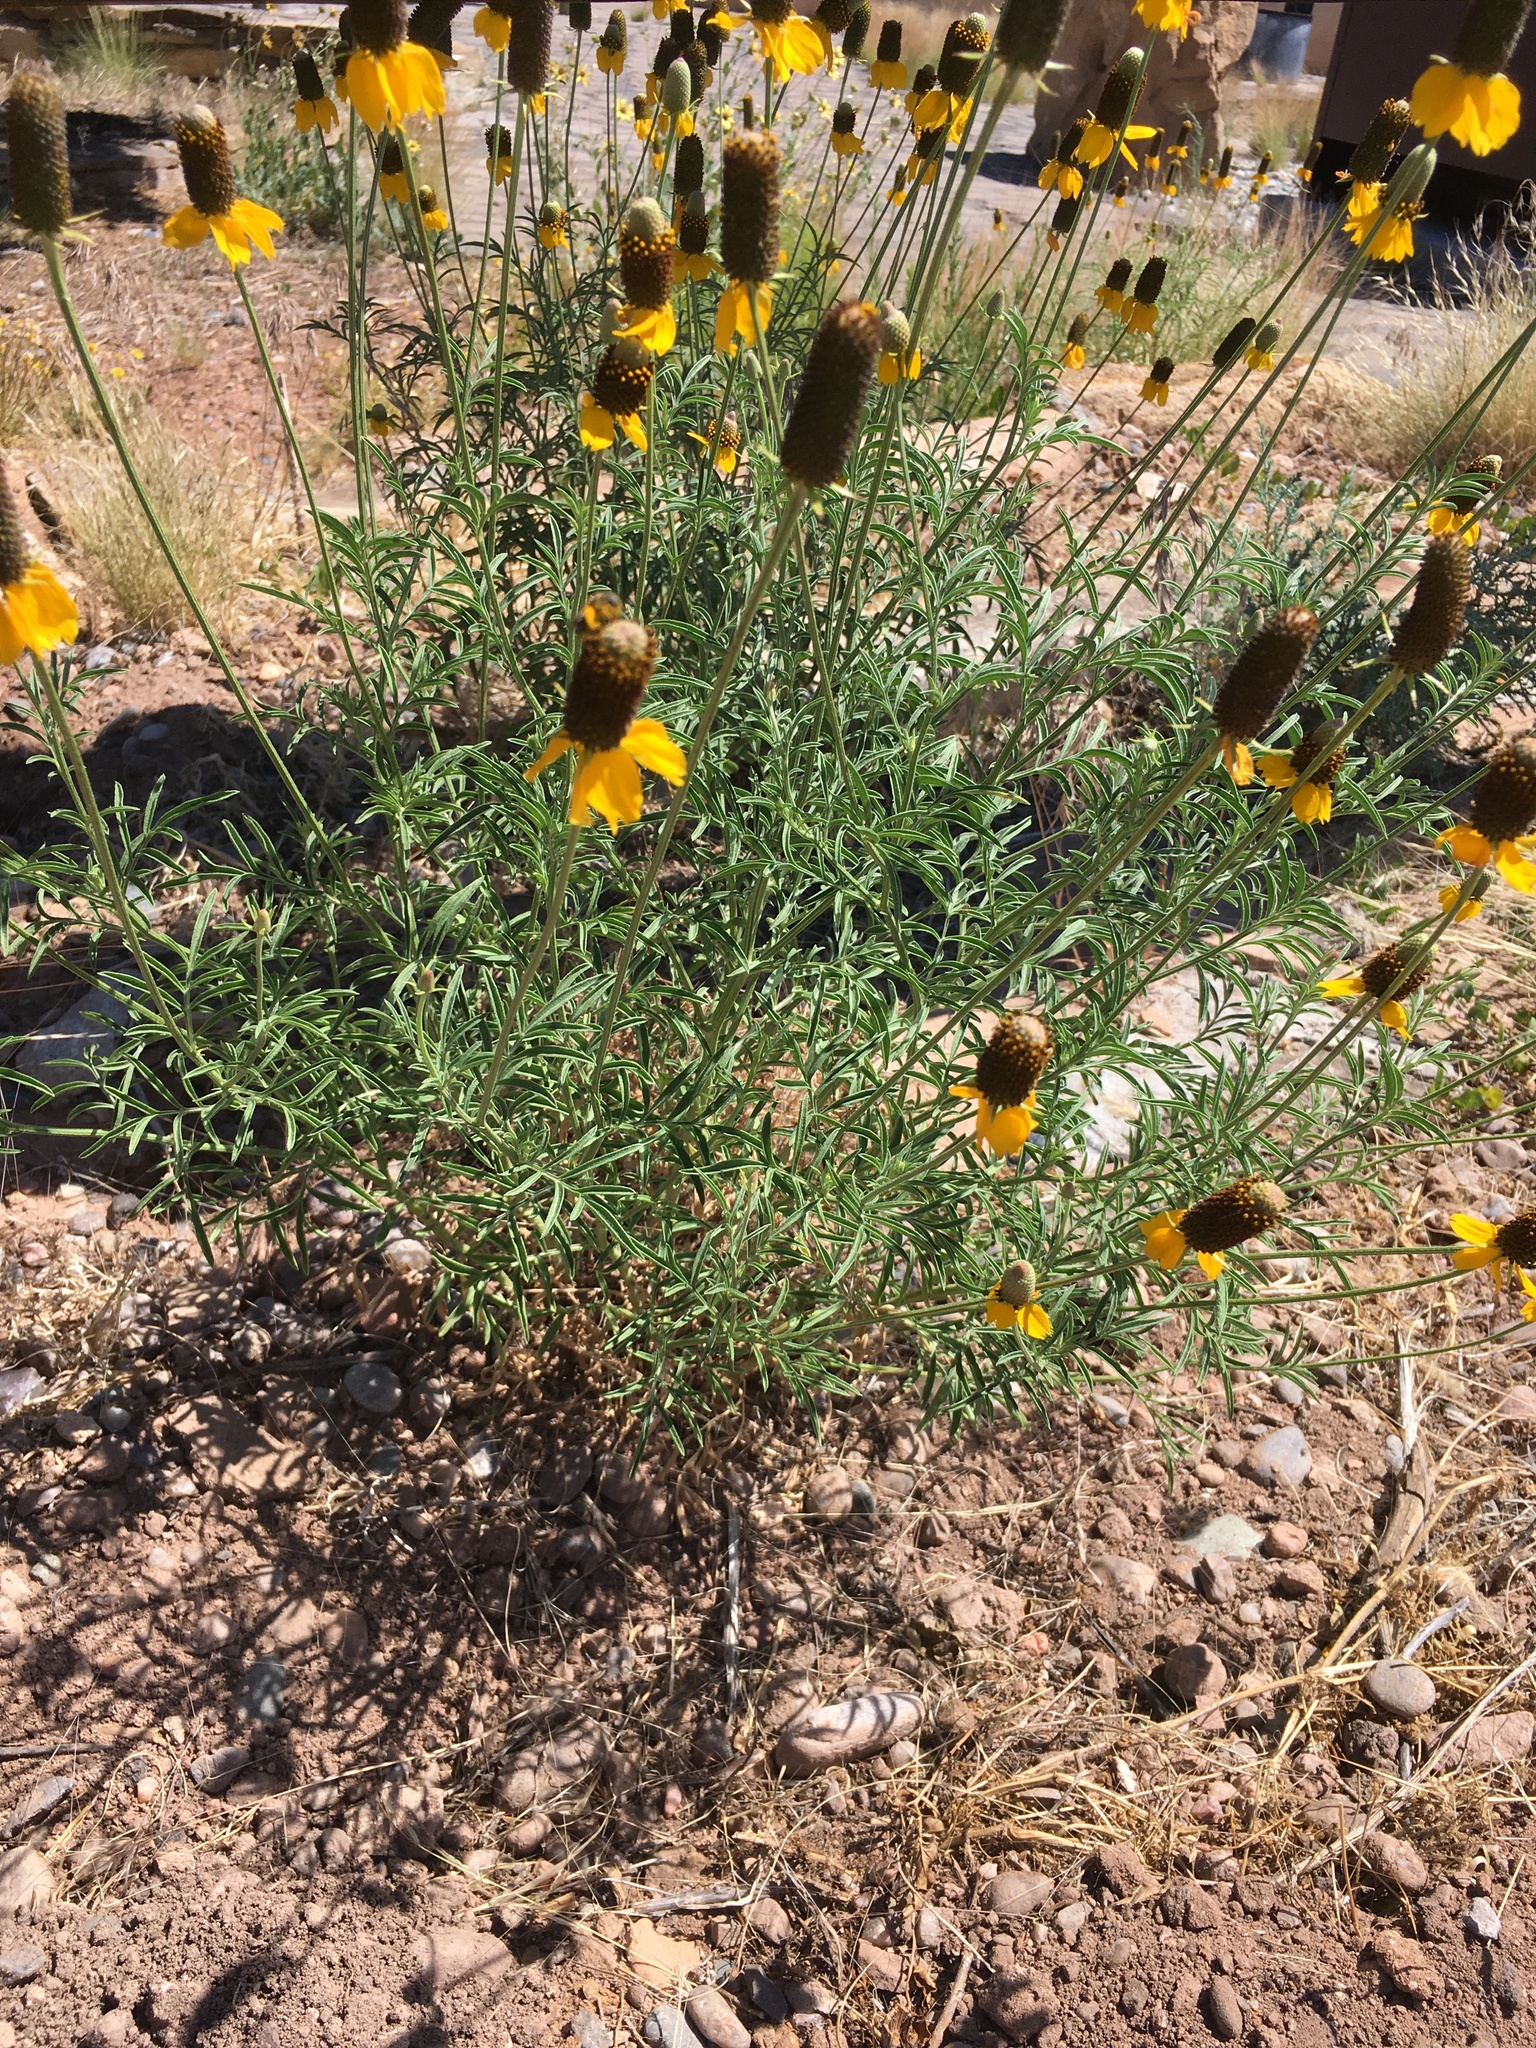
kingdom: Plantae
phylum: Tracheophyta
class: Magnoliopsida
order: Asterales
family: Asteraceae
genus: Ratibida
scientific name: Ratibida columnifera
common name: Prairie coneflower
